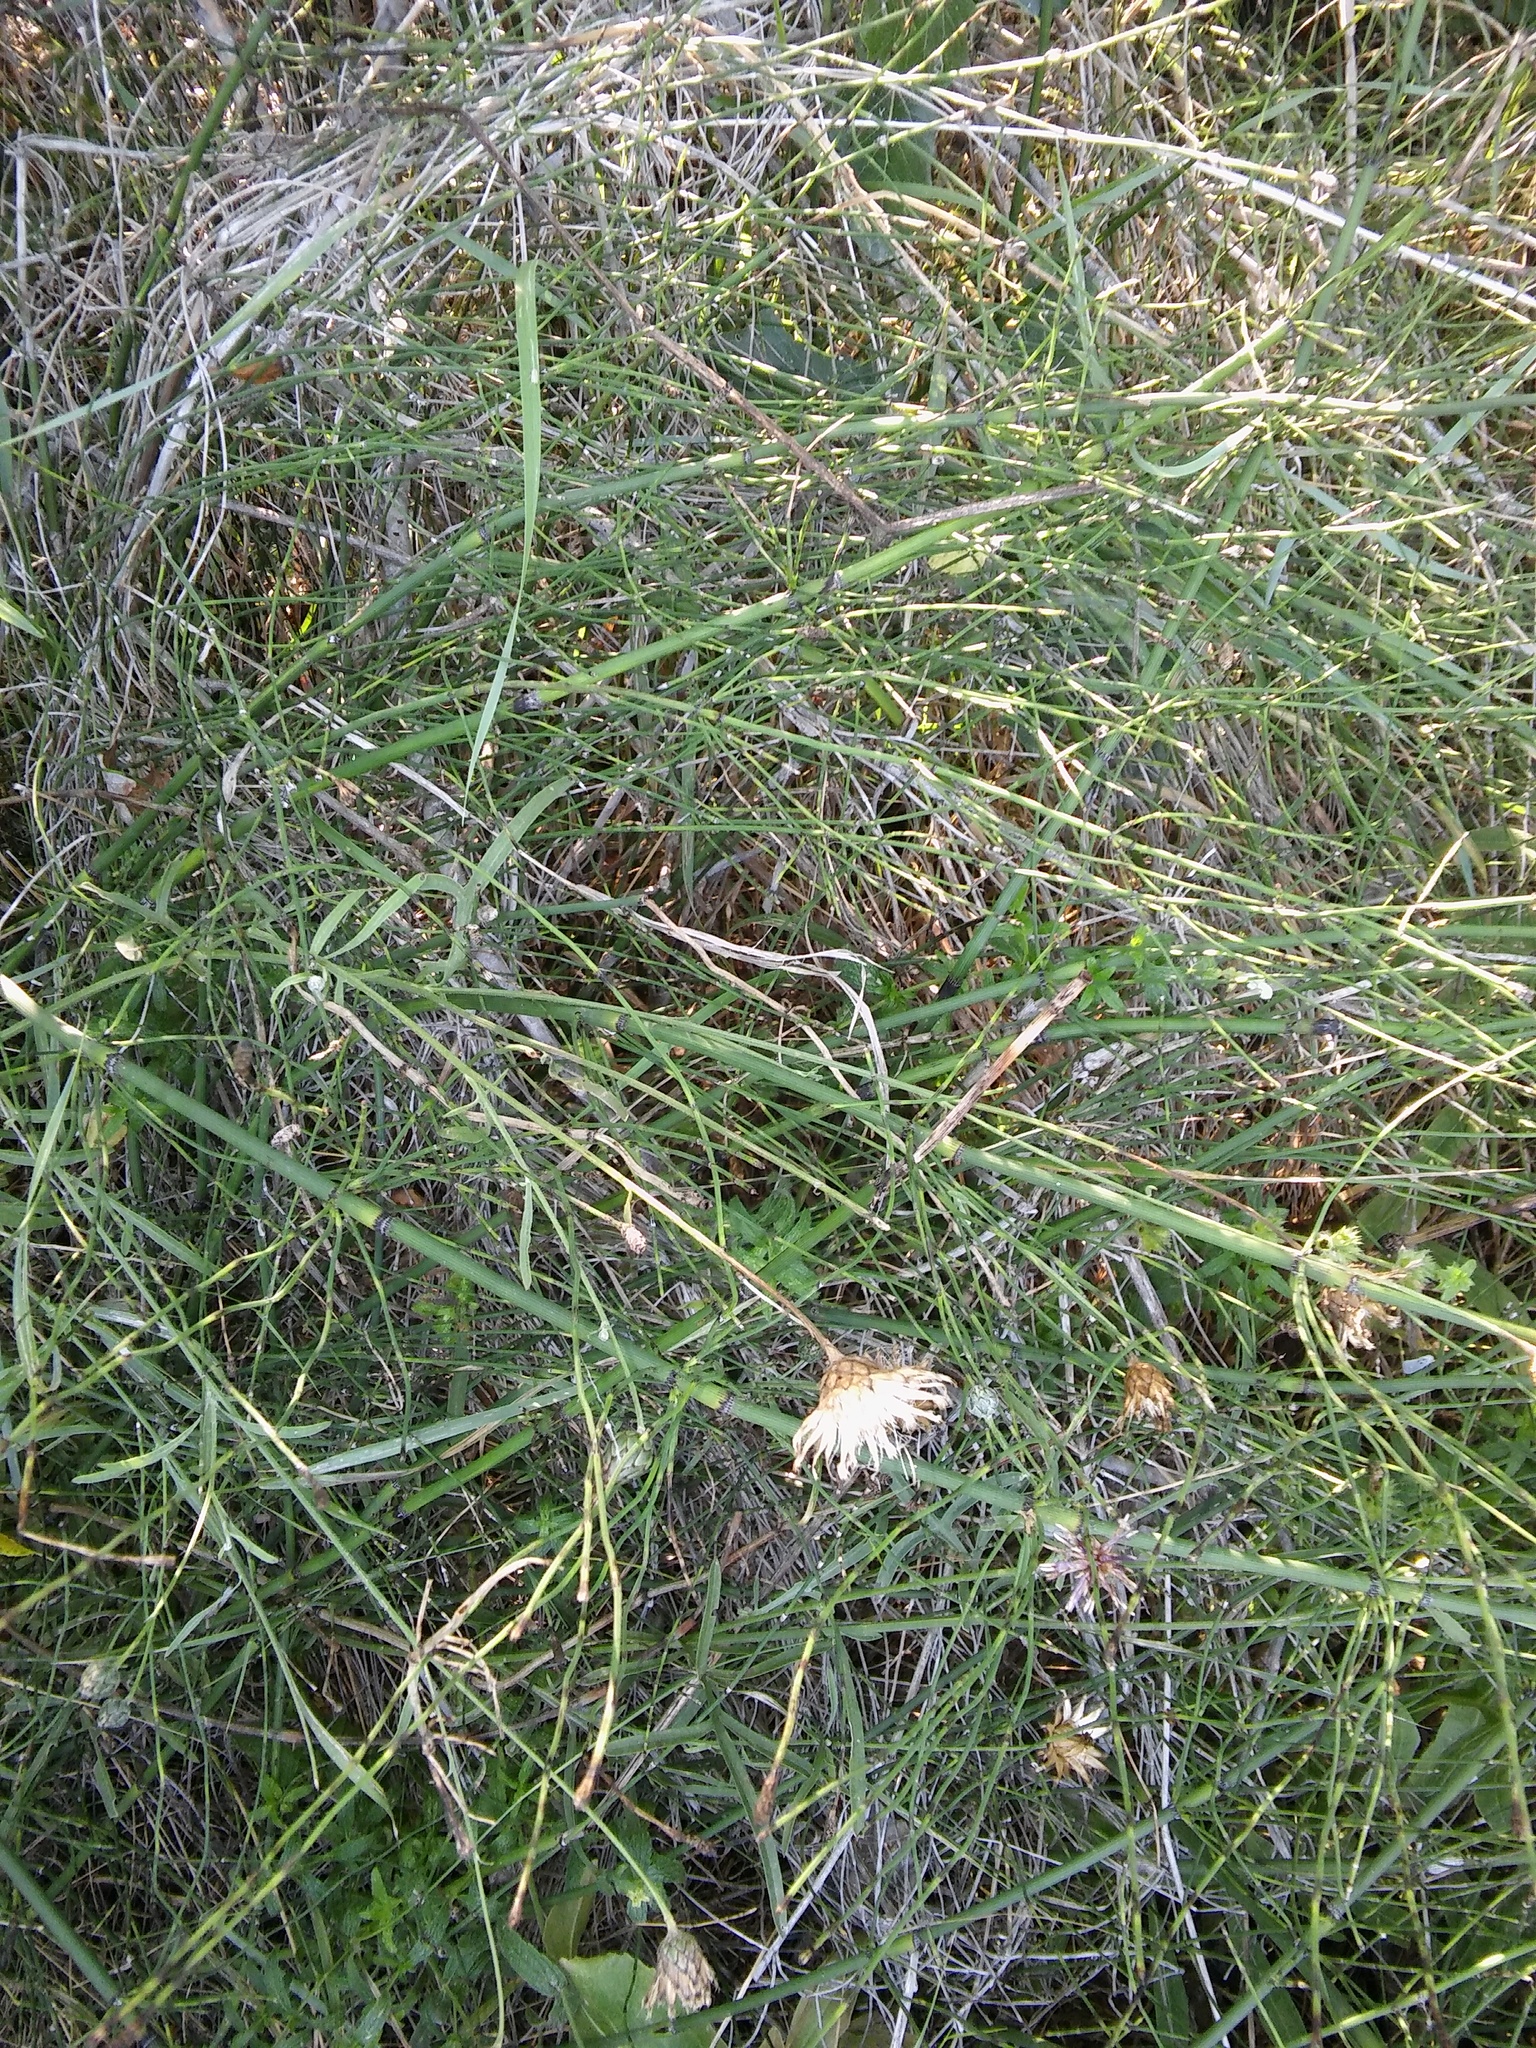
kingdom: Plantae
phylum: Tracheophyta
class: Polypodiopsida
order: Equisetales
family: Equisetaceae
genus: Equisetum
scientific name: Equisetum ramosissimum
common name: Branched horsetail
